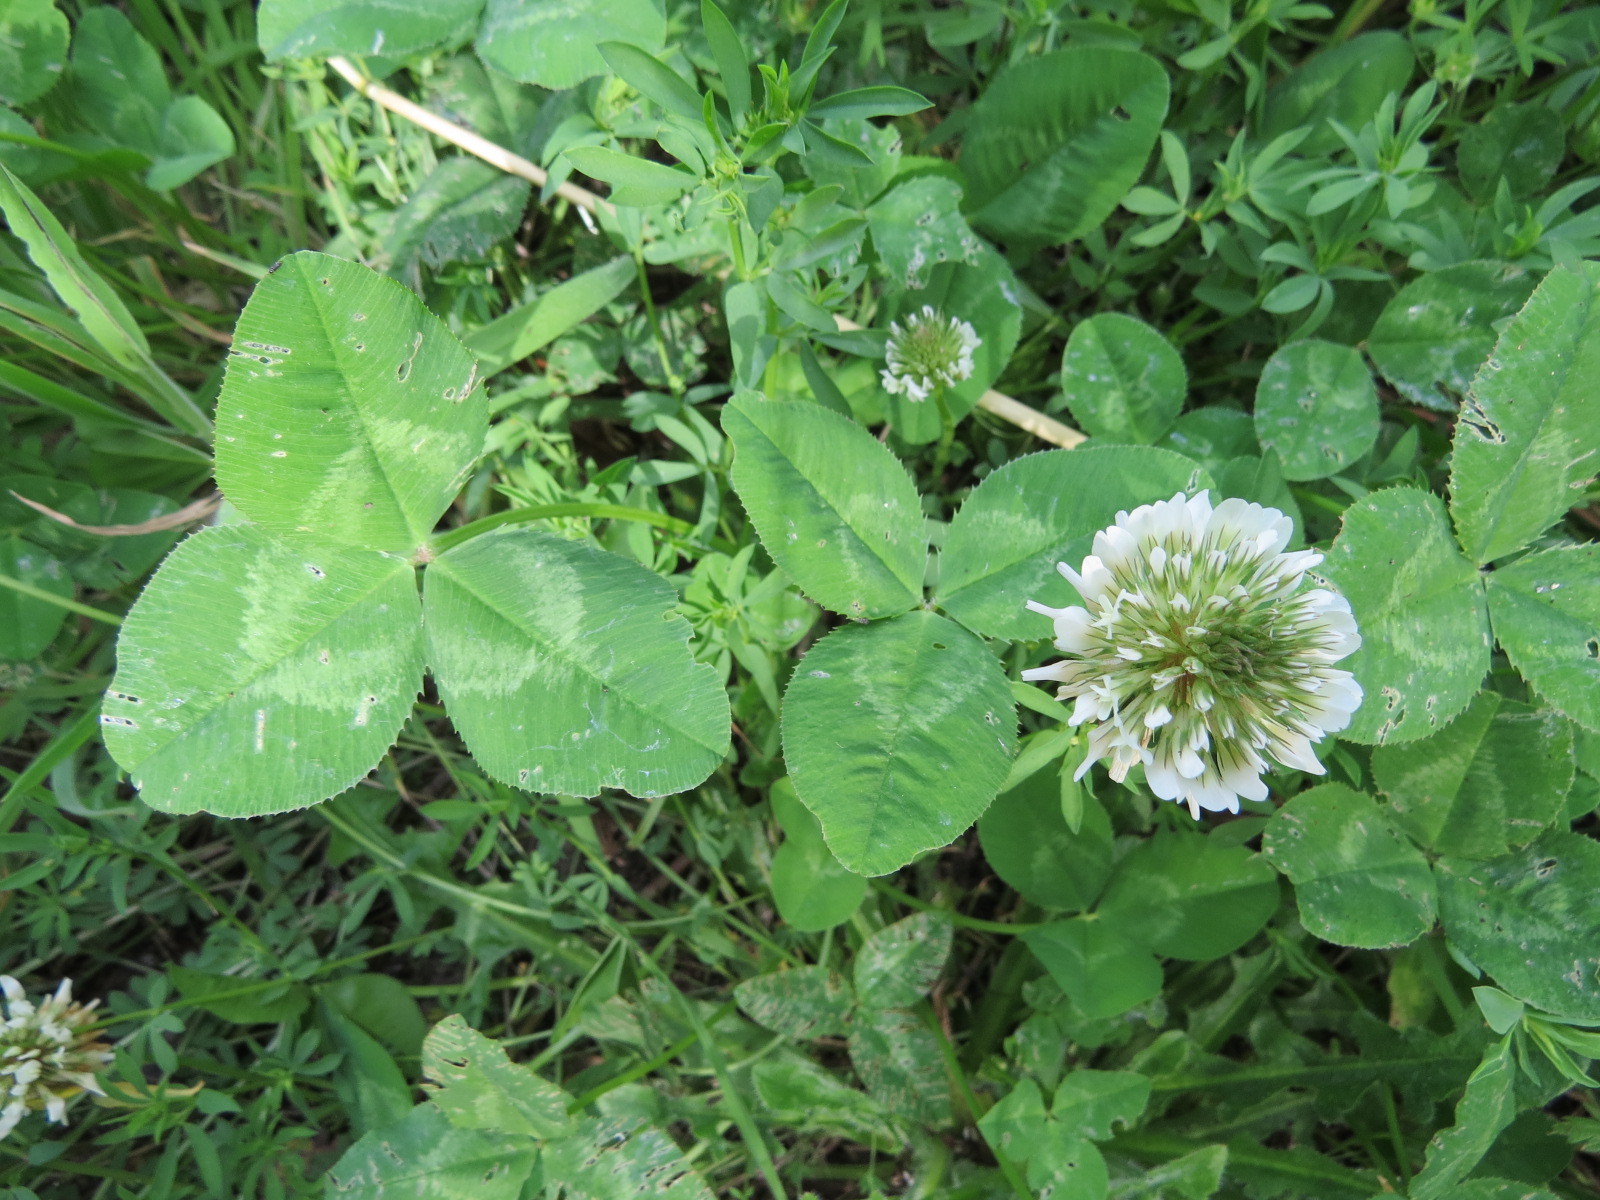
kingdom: Plantae
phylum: Tracheophyta
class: Magnoliopsida
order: Fabales
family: Fabaceae
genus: Trifolium
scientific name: Trifolium repens
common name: White clover
